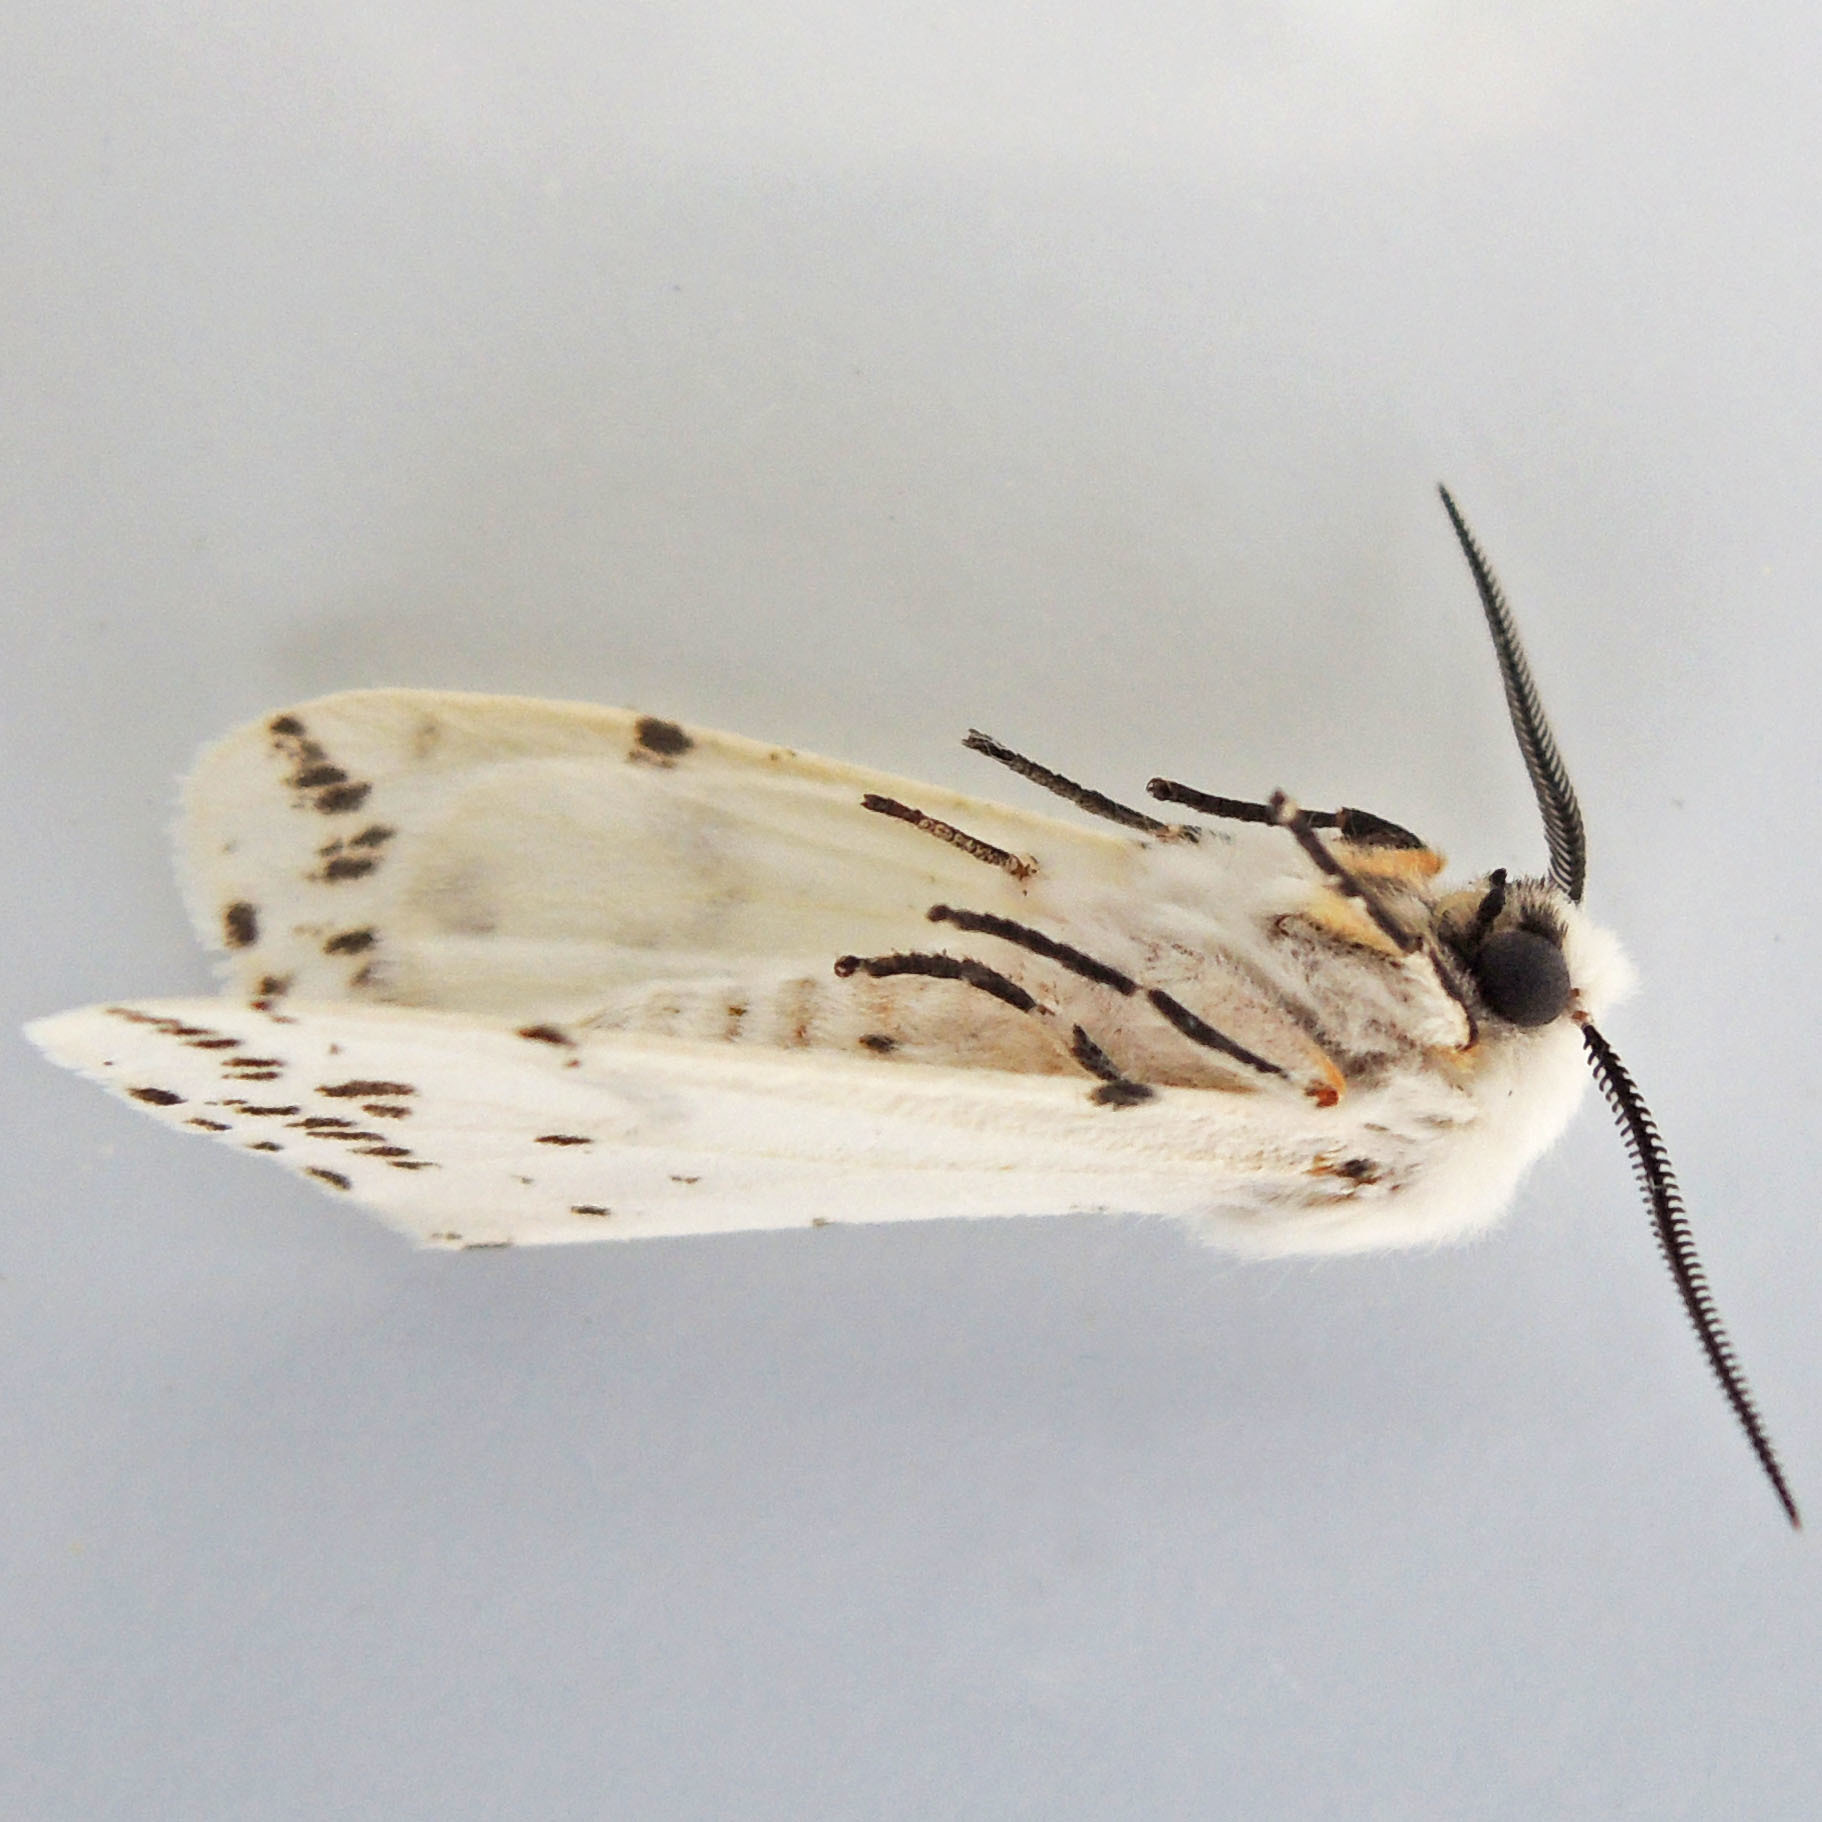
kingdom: Animalia
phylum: Arthropoda
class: Insecta
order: Lepidoptera
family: Erebidae
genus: Hyphantria
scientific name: Hyphantria cunea
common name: American white moth
